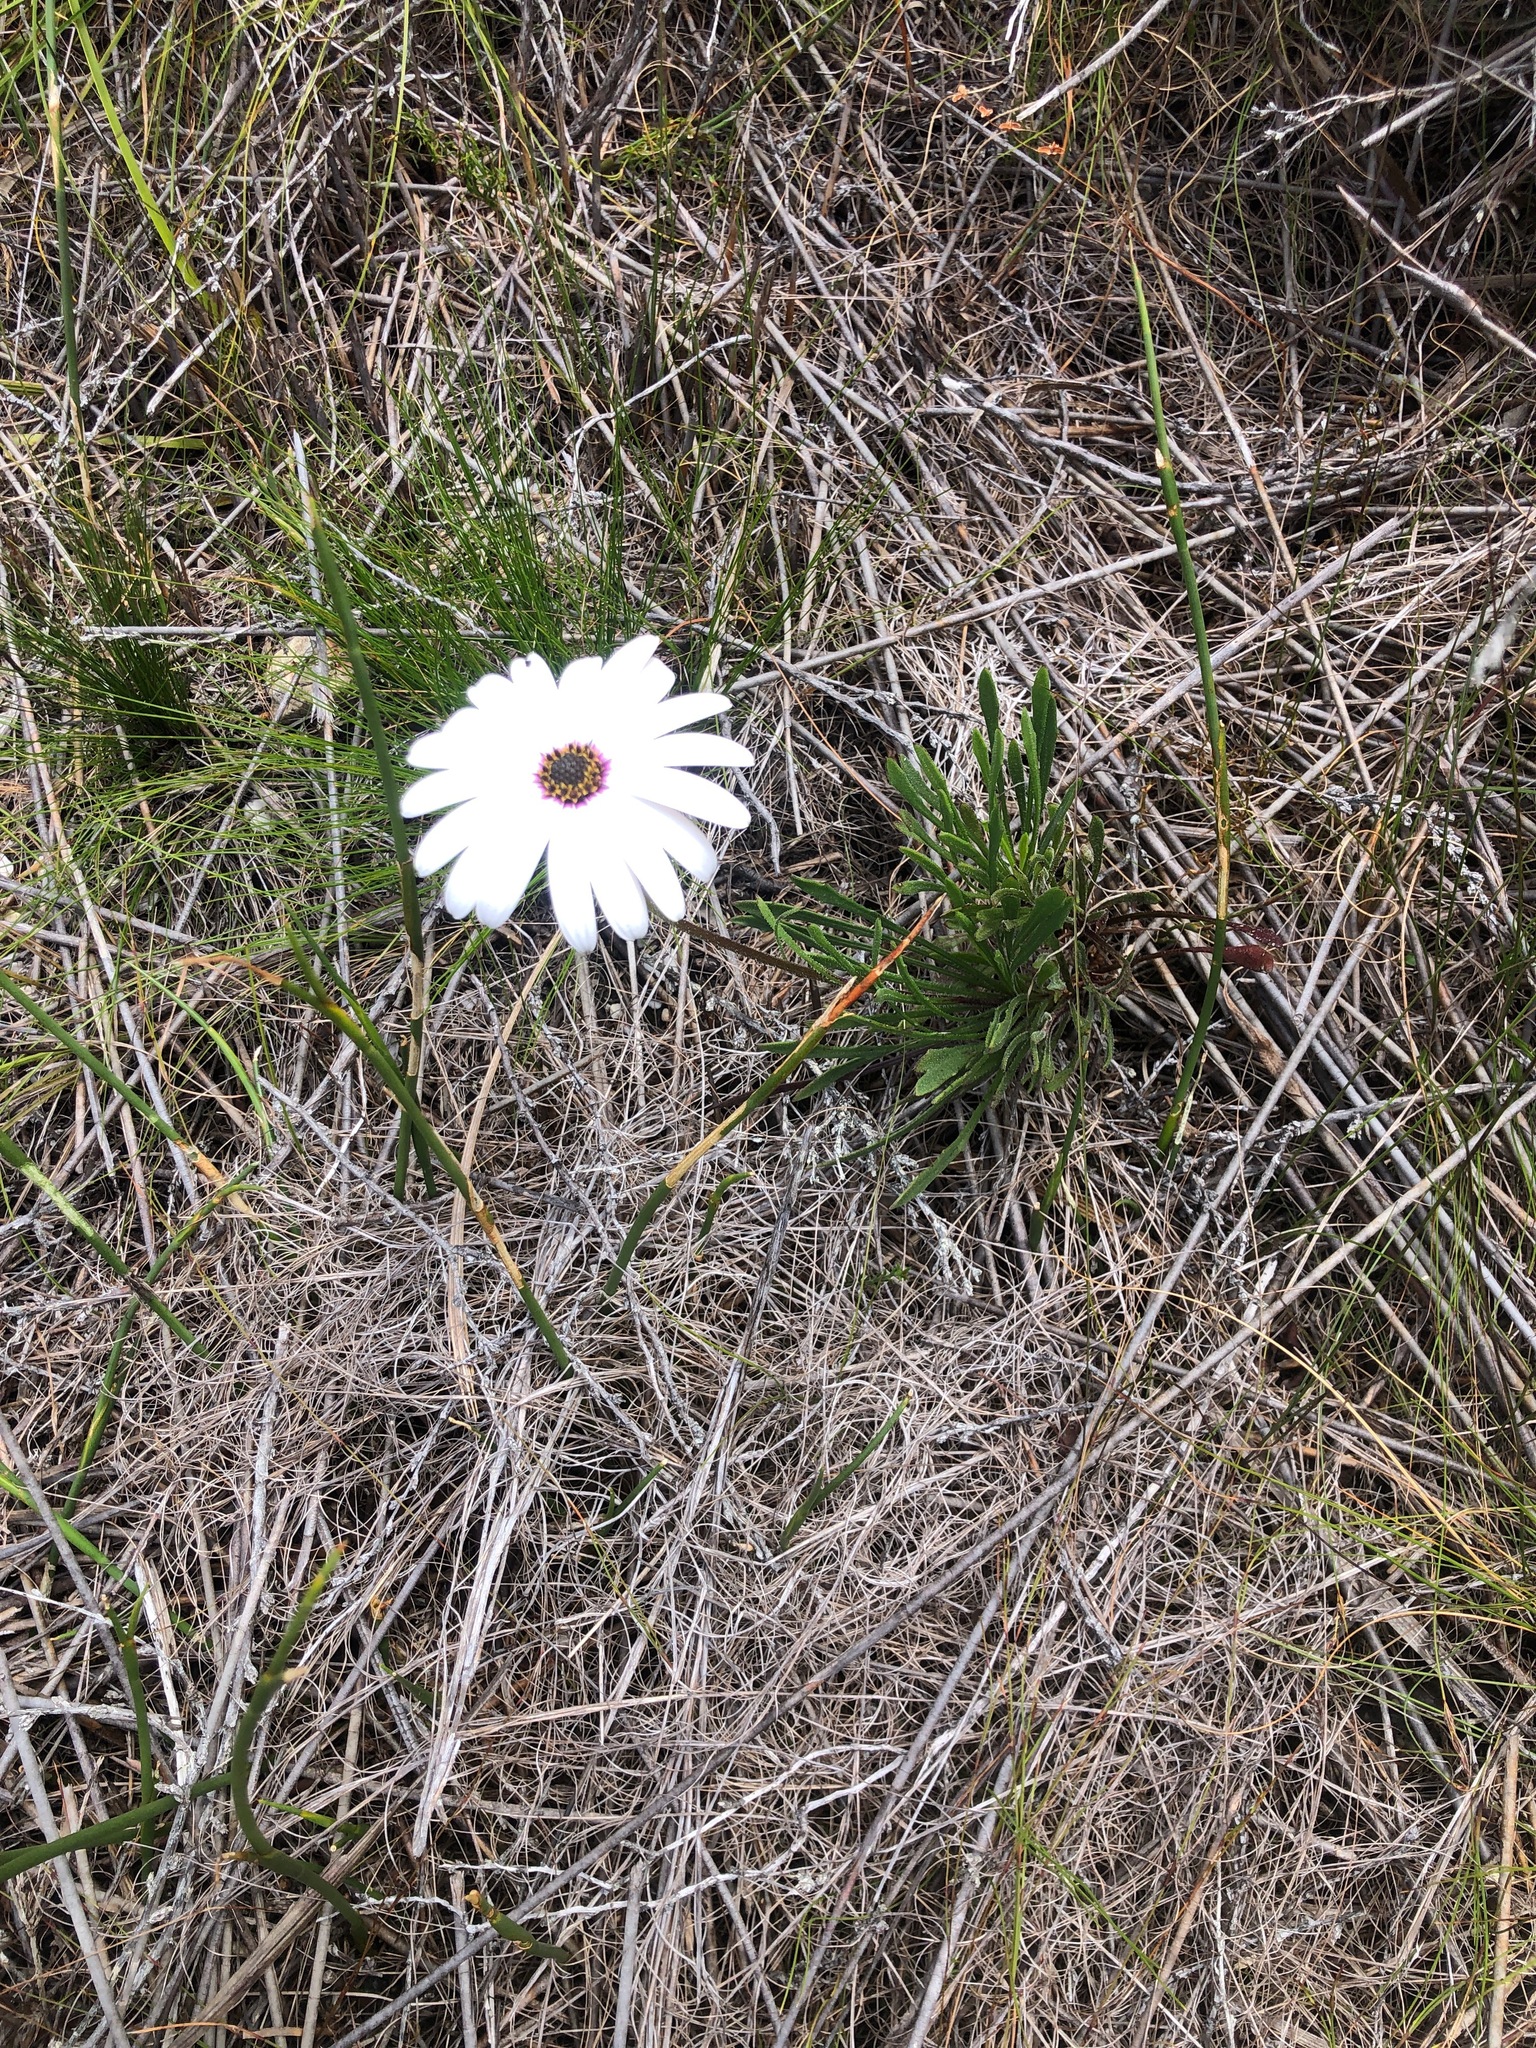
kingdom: Plantae
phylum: Tracheophyta
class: Magnoliopsida
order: Asterales
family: Asteraceae
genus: Dimorphotheca
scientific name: Dimorphotheca nudicaulis
